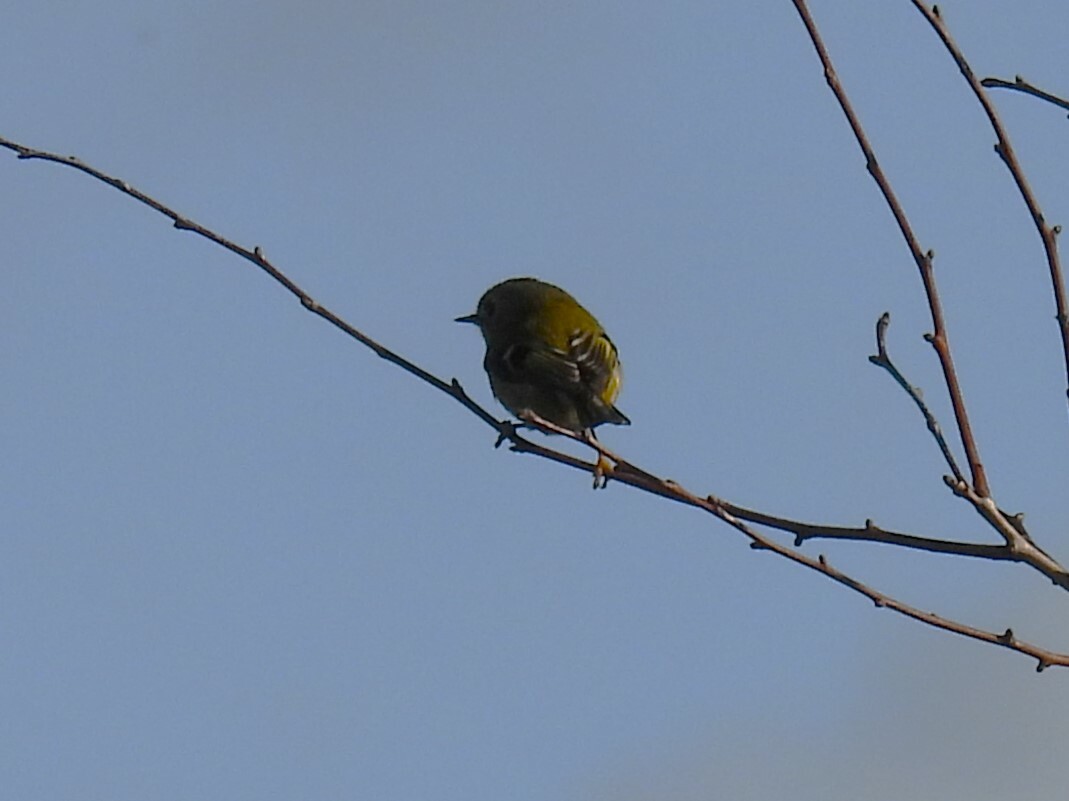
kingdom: Animalia
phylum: Chordata
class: Aves
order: Passeriformes
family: Regulidae
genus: Regulus
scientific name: Regulus regulus
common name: Goldcrest
